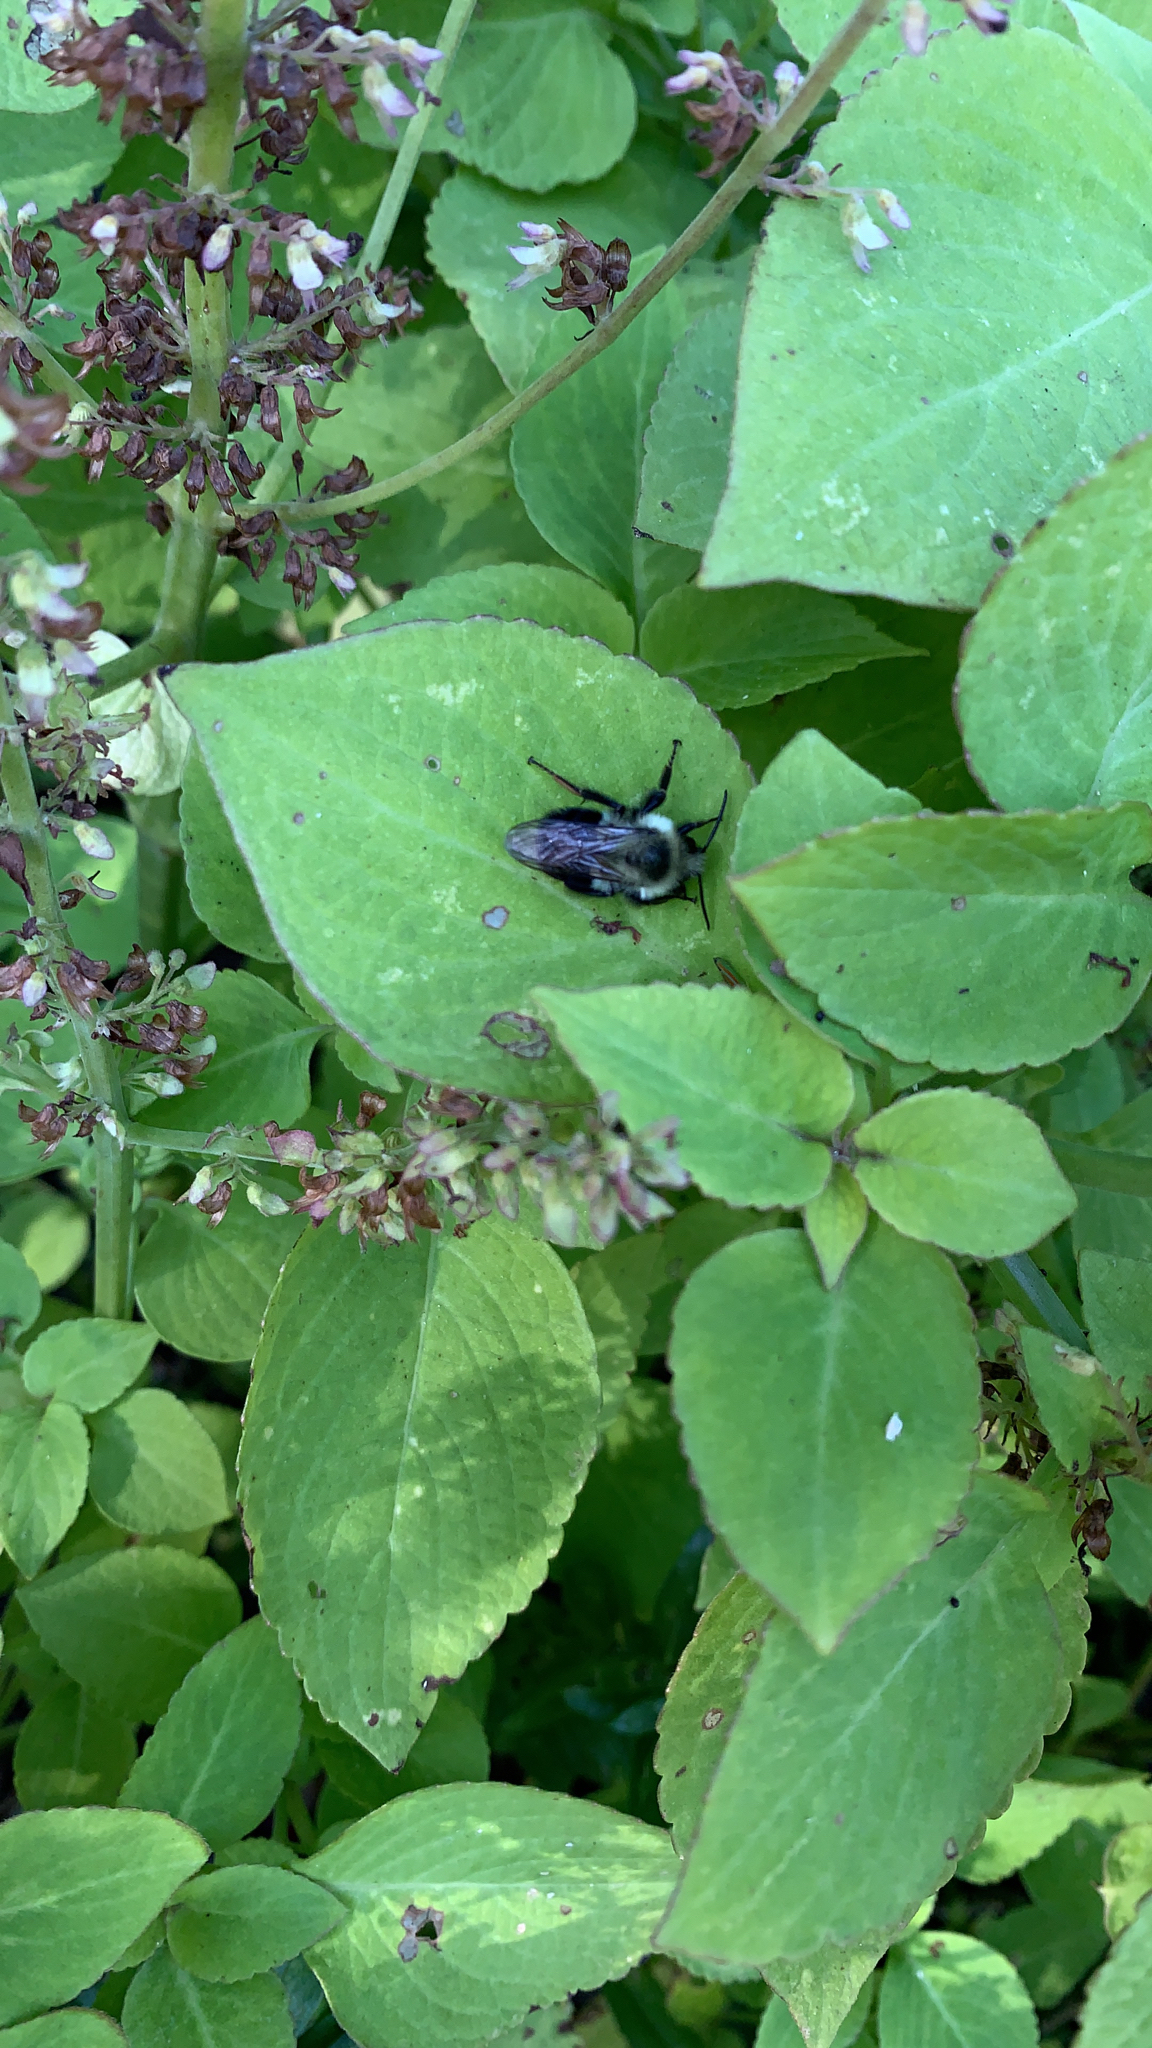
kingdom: Animalia
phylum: Arthropoda
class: Insecta
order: Hymenoptera
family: Apidae
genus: Bombus
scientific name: Bombus impatiens
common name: Common eastern bumble bee
